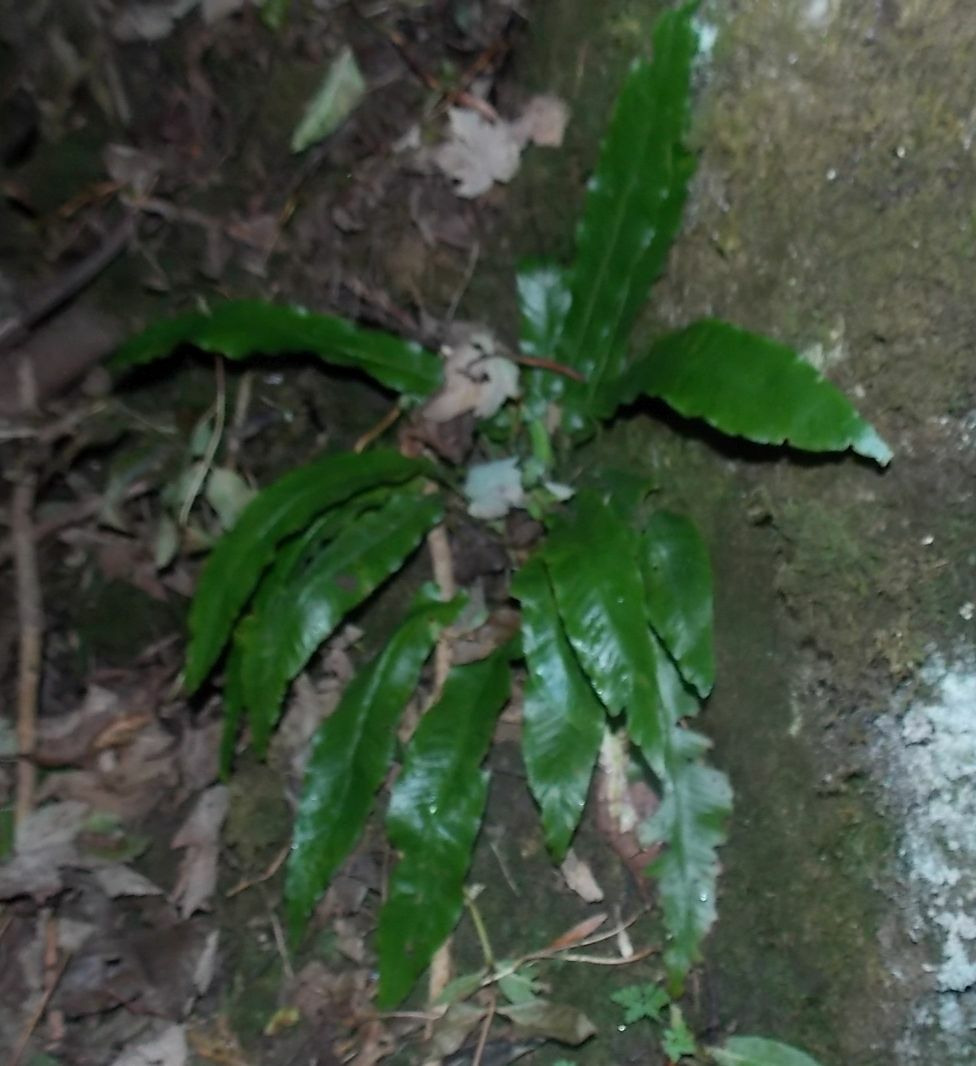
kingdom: Plantae
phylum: Tracheophyta
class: Polypodiopsida
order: Polypodiales
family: Aspleniaceae
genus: Asplenium
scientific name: Asplenium scolopendrium
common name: Hart's-tongue fern
